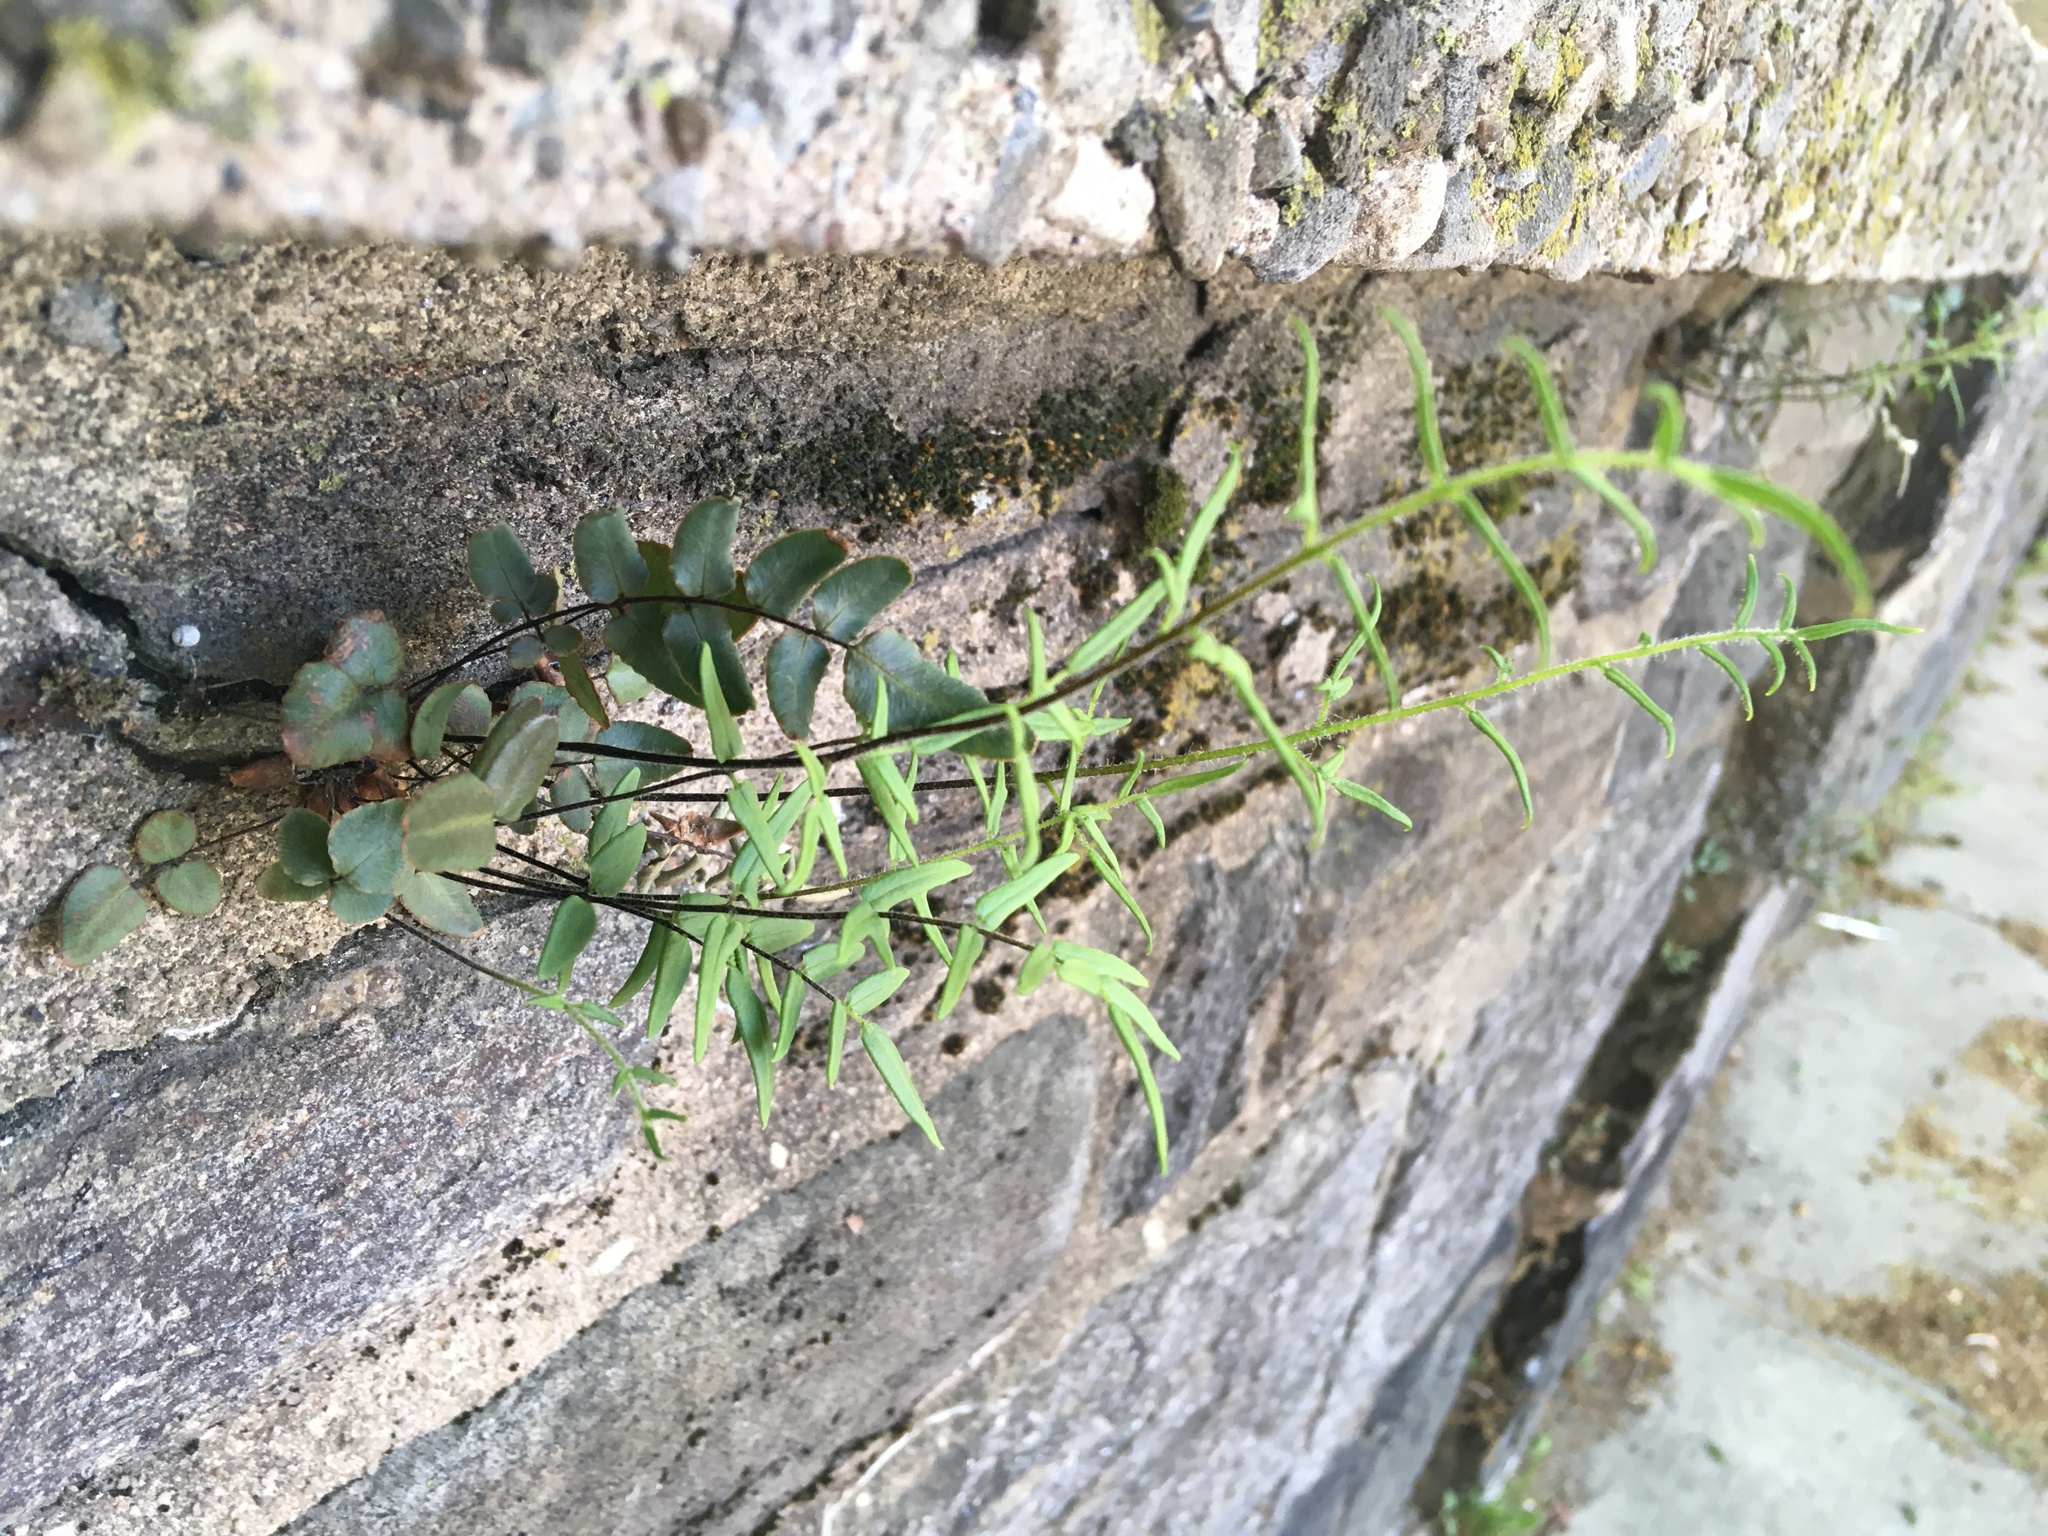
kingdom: Plantae
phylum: Tracheophyta
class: Polypodiopsida
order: Polypodiales
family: Pteridaceae
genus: Pellaea
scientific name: Pellaea atropurpurea
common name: Hairy cliffbrake
